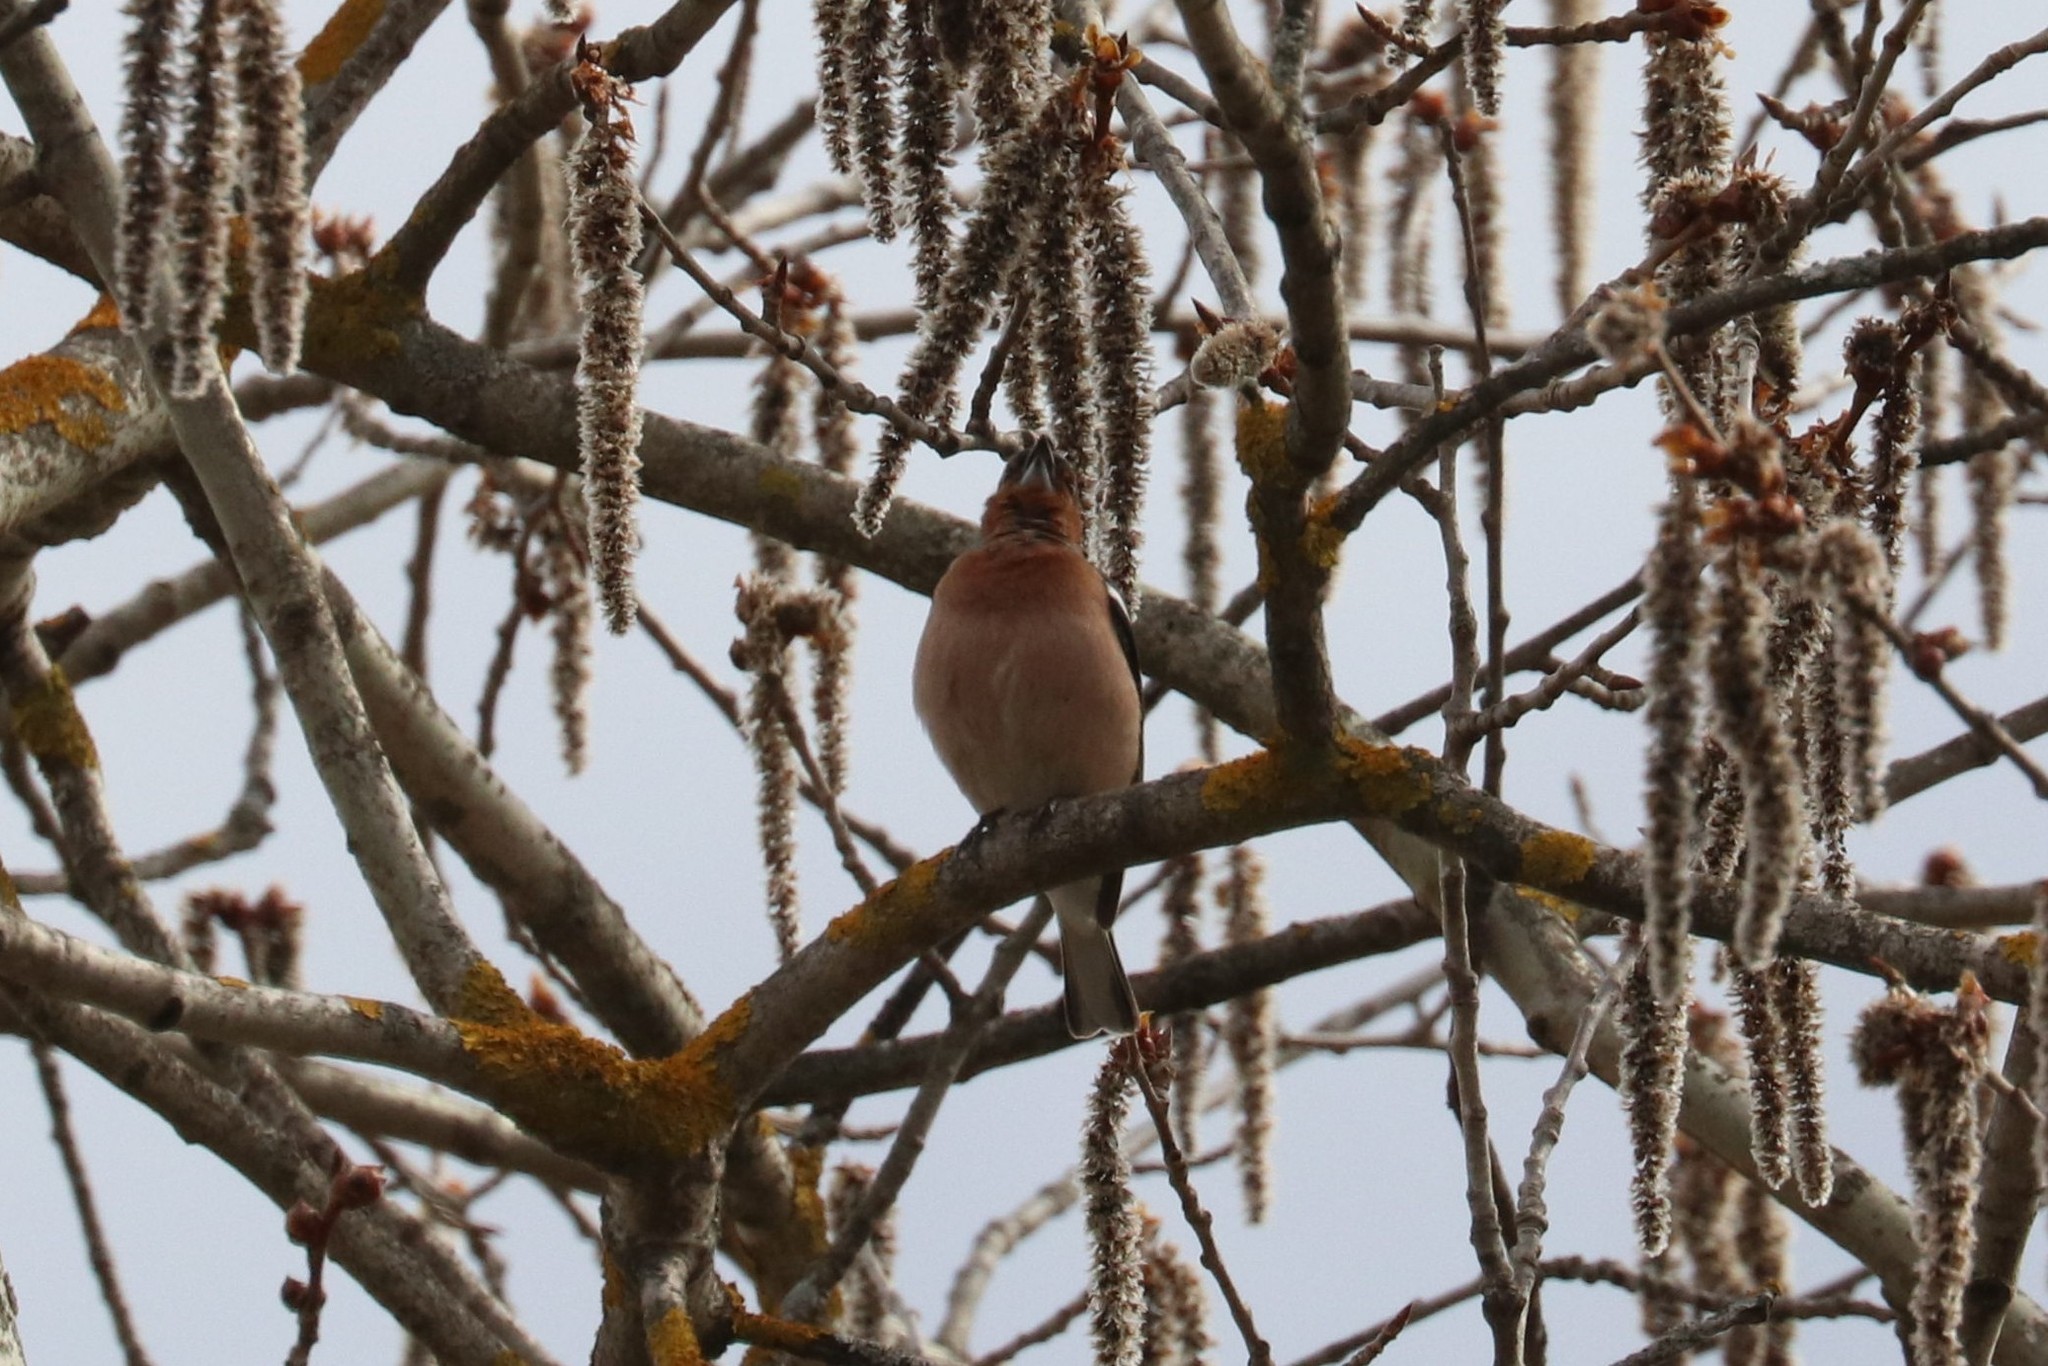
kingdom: Animalia
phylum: Chordata
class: Aves
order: Passeriformes
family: Fringillidae
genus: Fringilla
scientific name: Fringilla coelebs
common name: Common chaffinch
